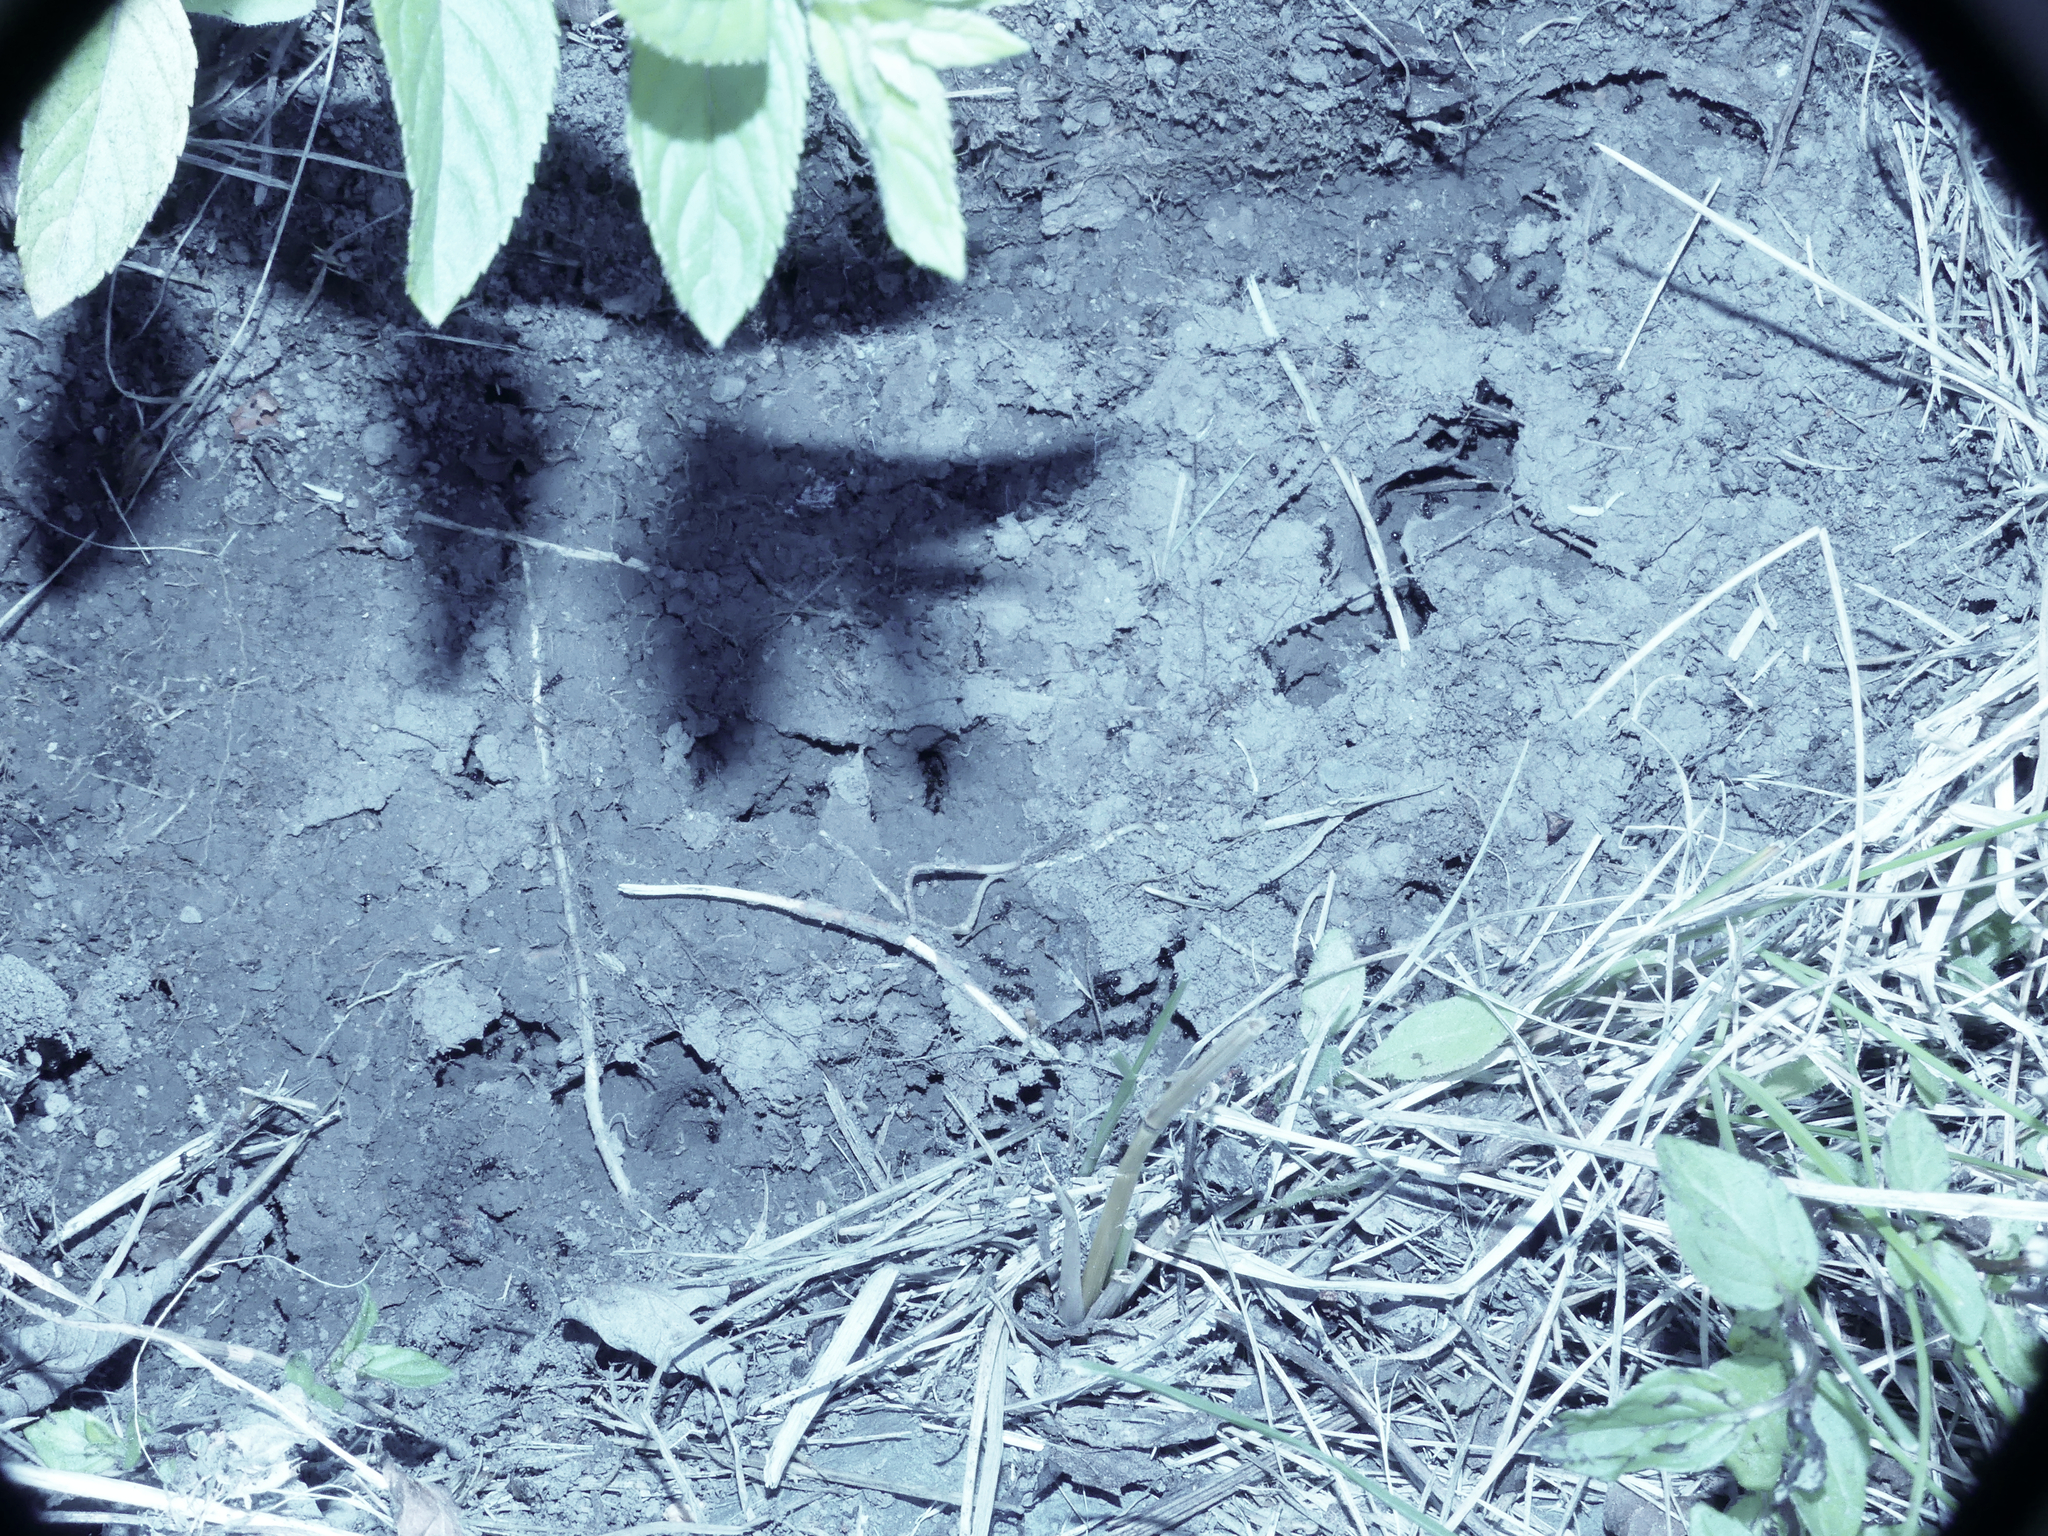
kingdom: Animalia
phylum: Arthropoda
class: Insecta
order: Hymenoptera
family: Formicidae
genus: Tetramorium
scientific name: Tetramorium immigrans
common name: Pavement ant
